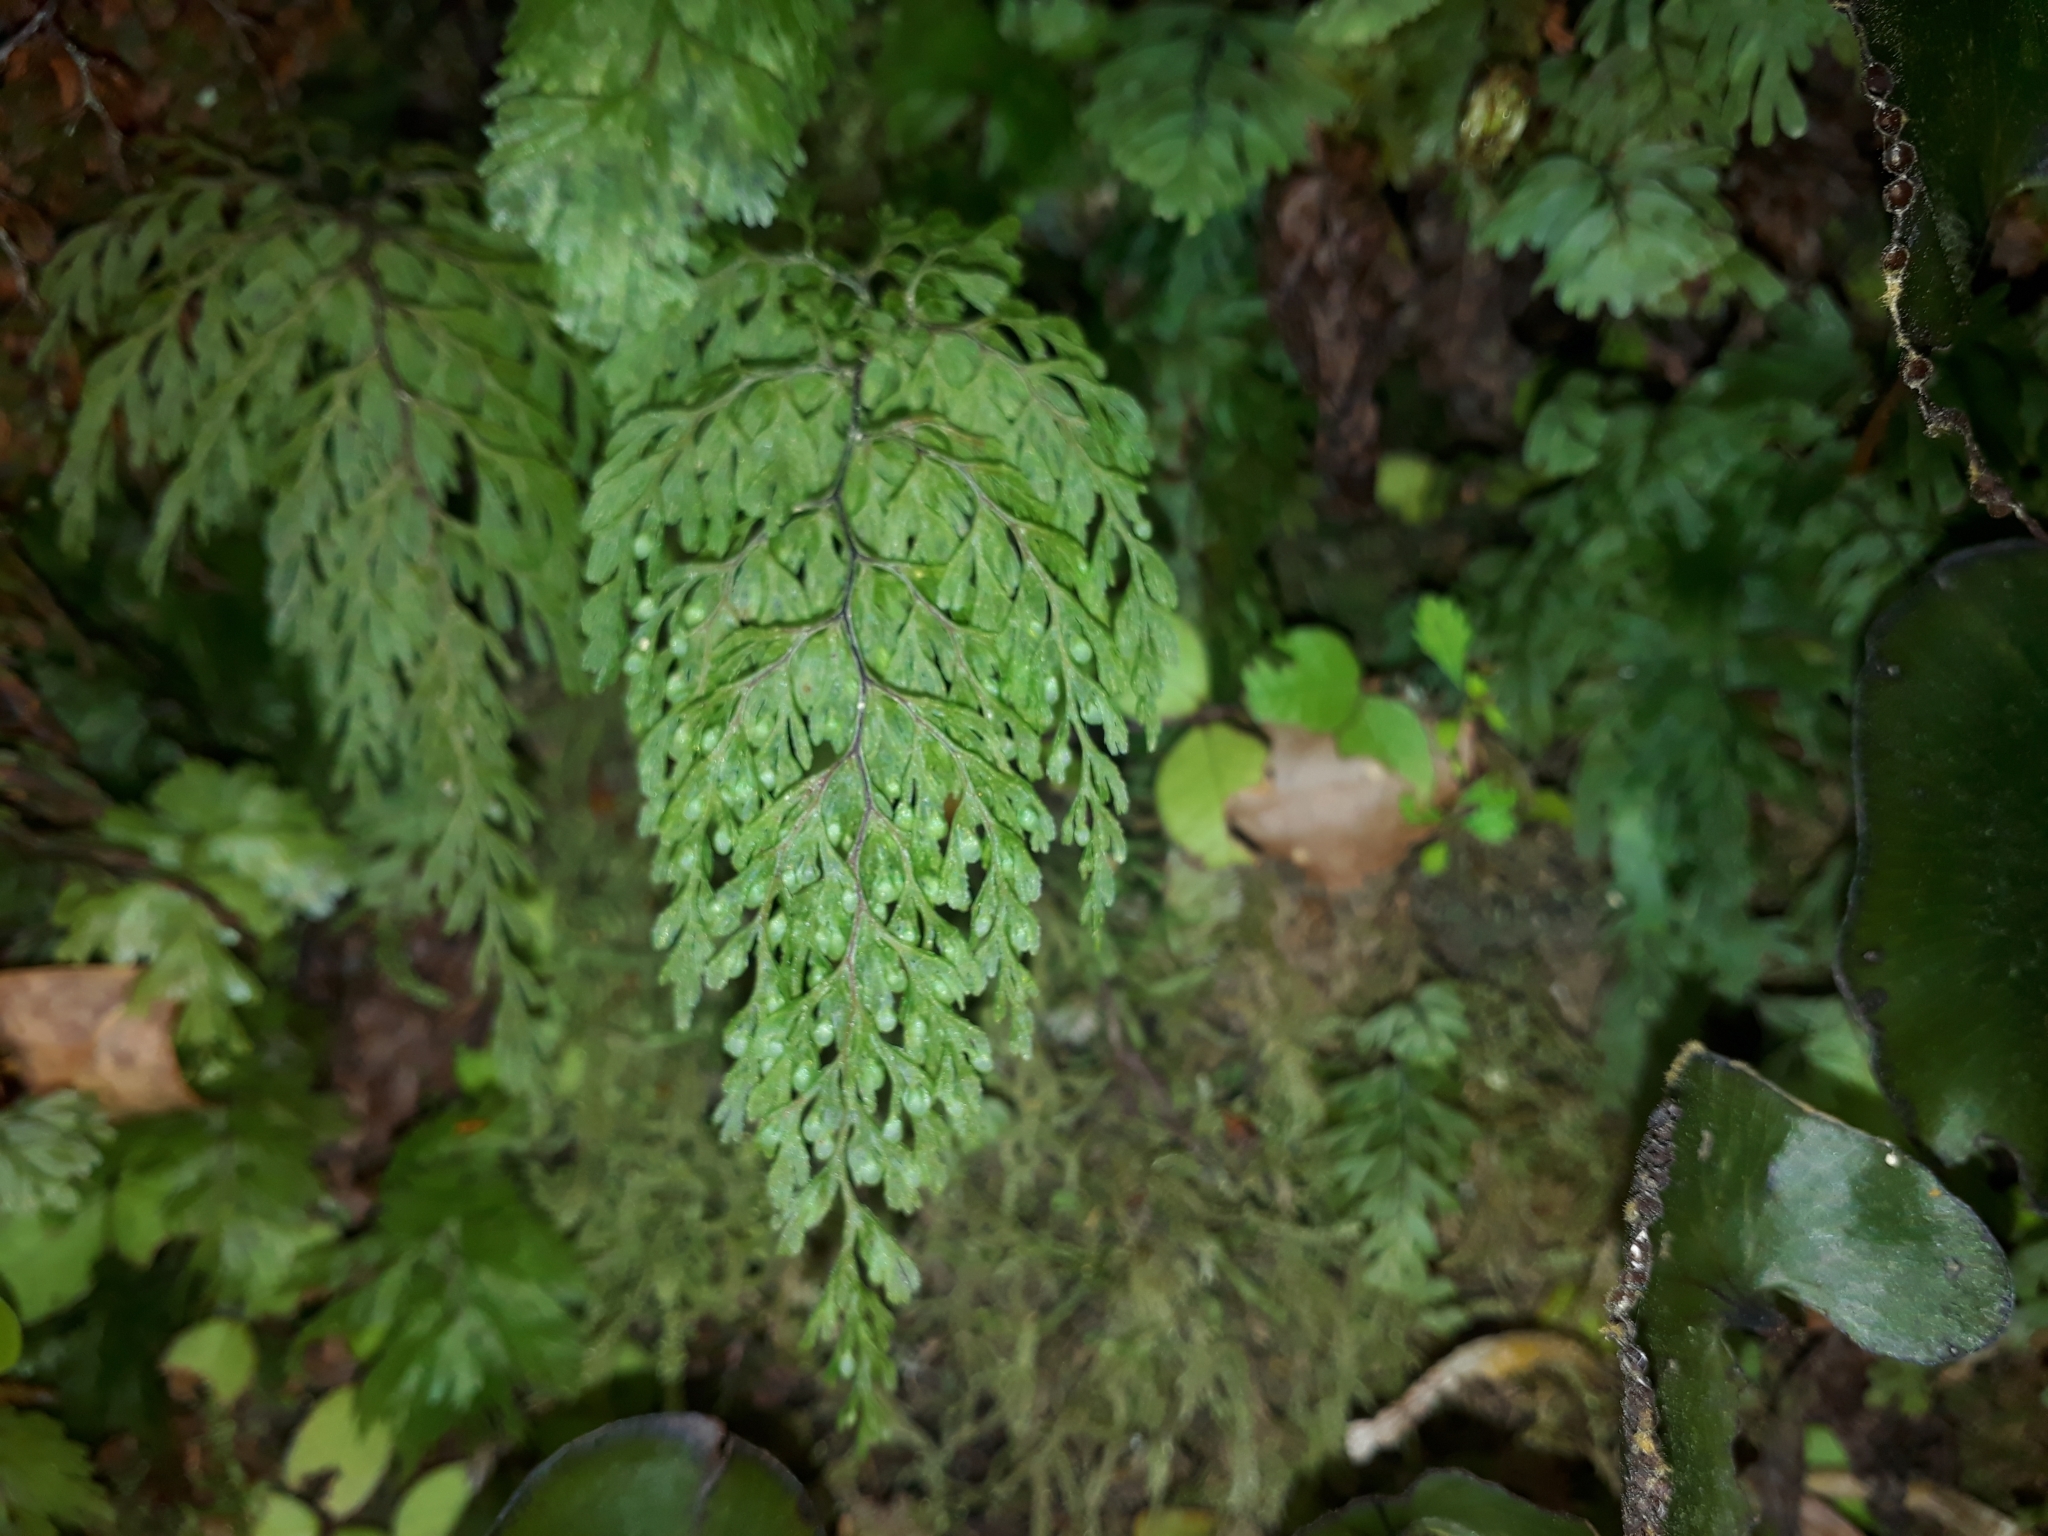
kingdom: Plantae
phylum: Tracheophyta
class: Polypodiopsida
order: Hymenophyllales
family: Hymenophyllaceae
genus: Hymenophyllum
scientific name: Hymenophyllum bivalve
